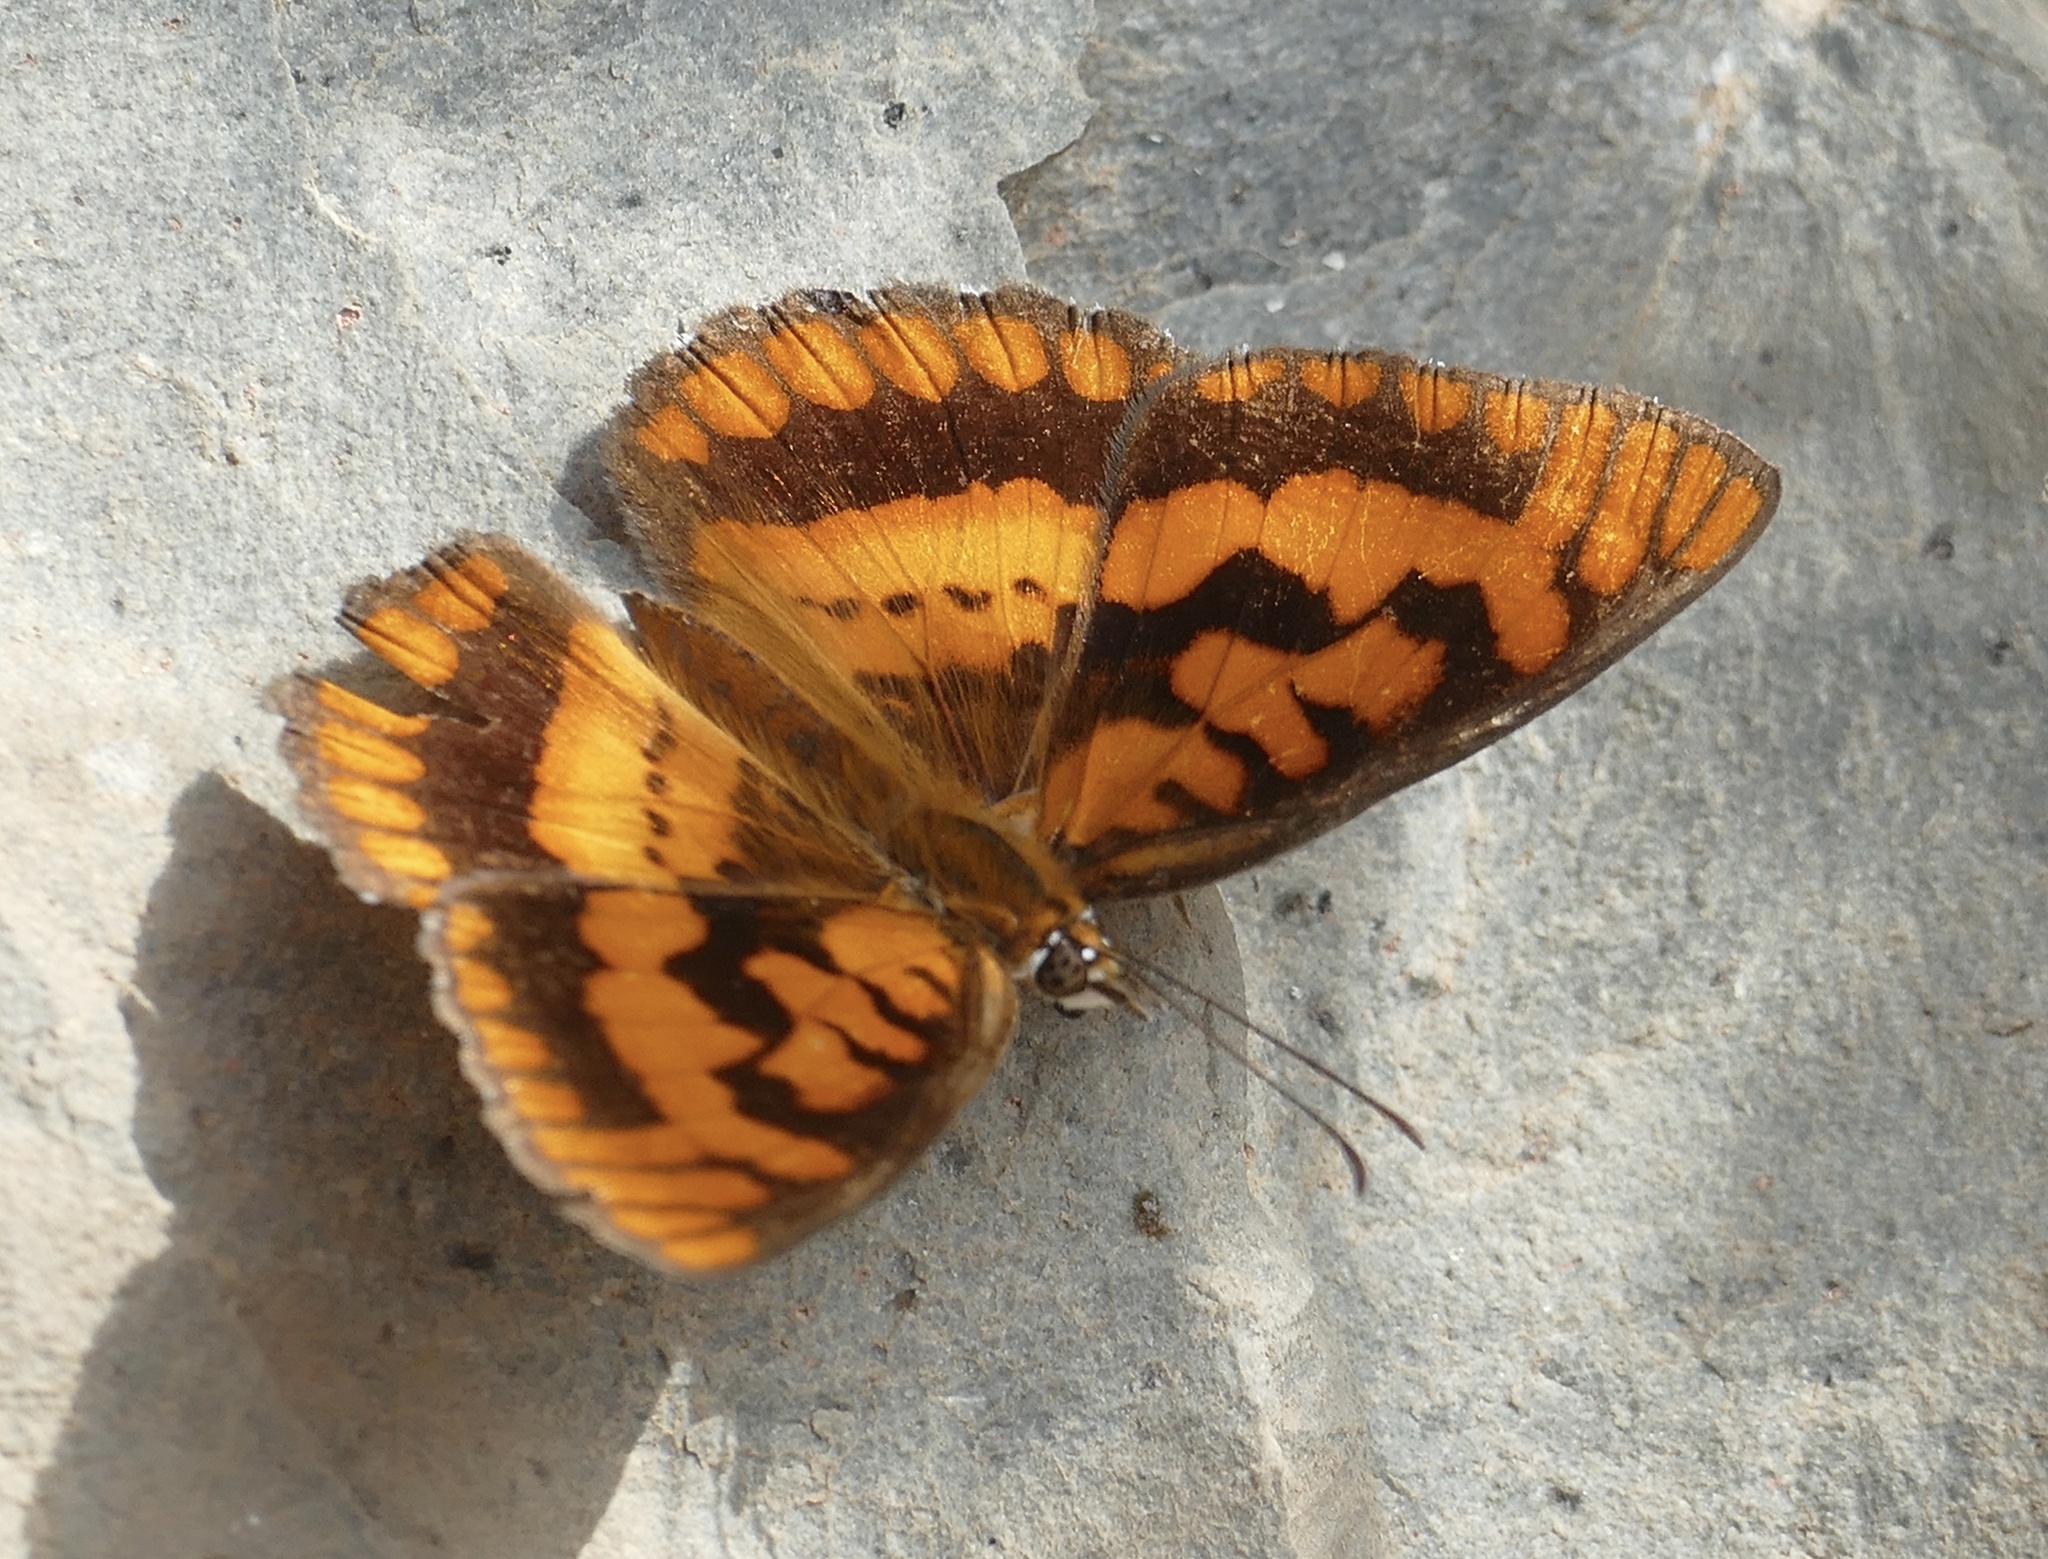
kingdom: Animalia
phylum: Arthropoda
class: Insecta
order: Lepidoptera
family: Nymphalidae
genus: Byblia
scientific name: Byblia ilithyia
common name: Spotted joker
